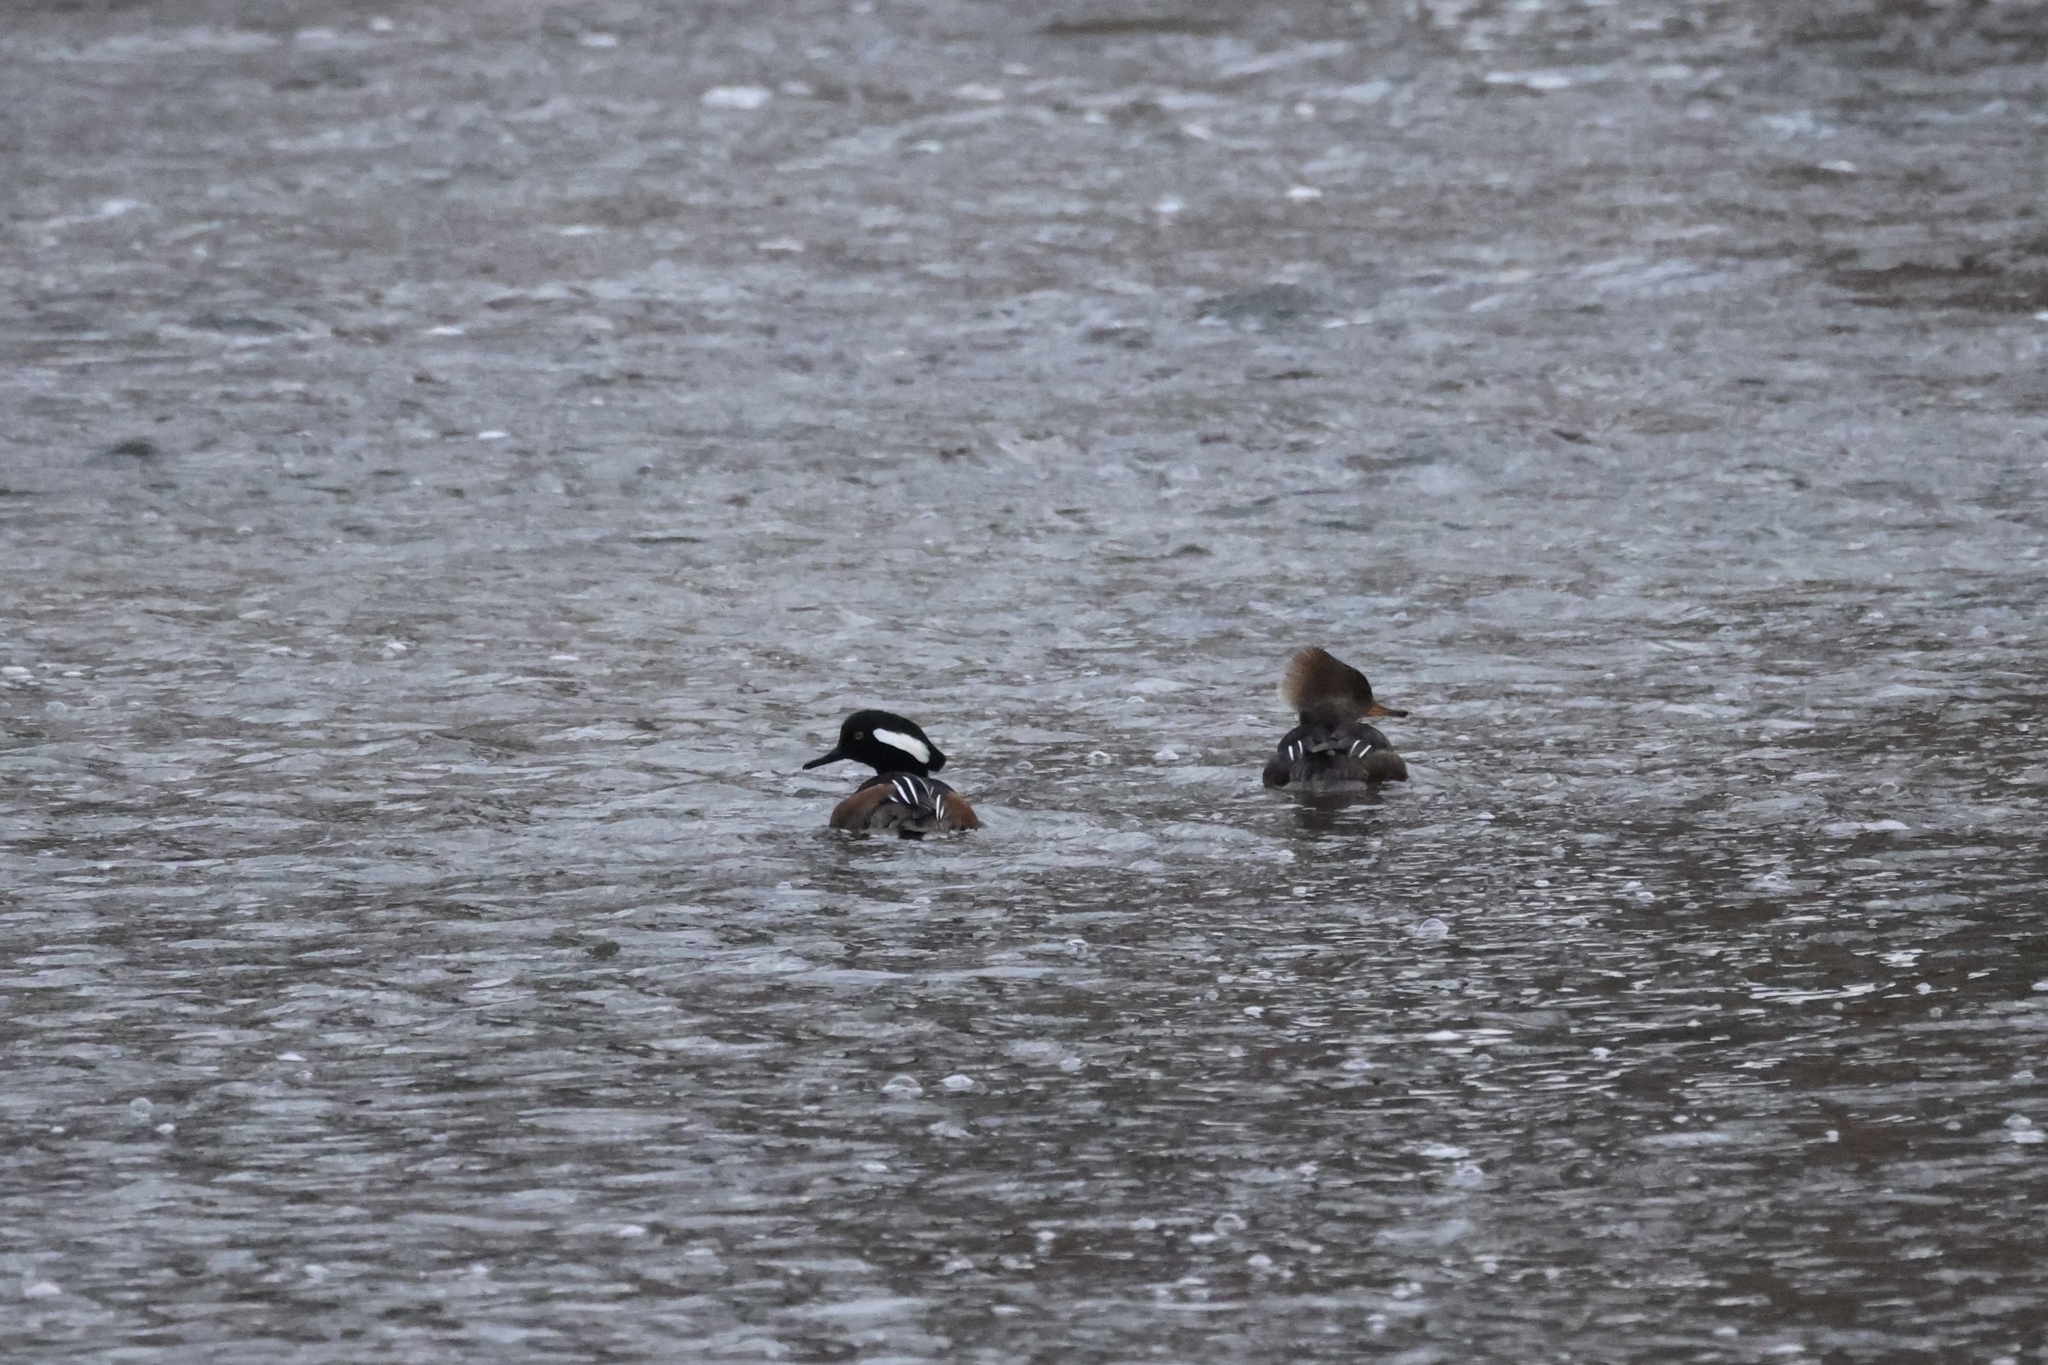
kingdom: Animalia
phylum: Chordata
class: Aves
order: Anseriformes
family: Anatidae
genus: Lophodytes
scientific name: Lophodytes cucullatus
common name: Hooded merganser
